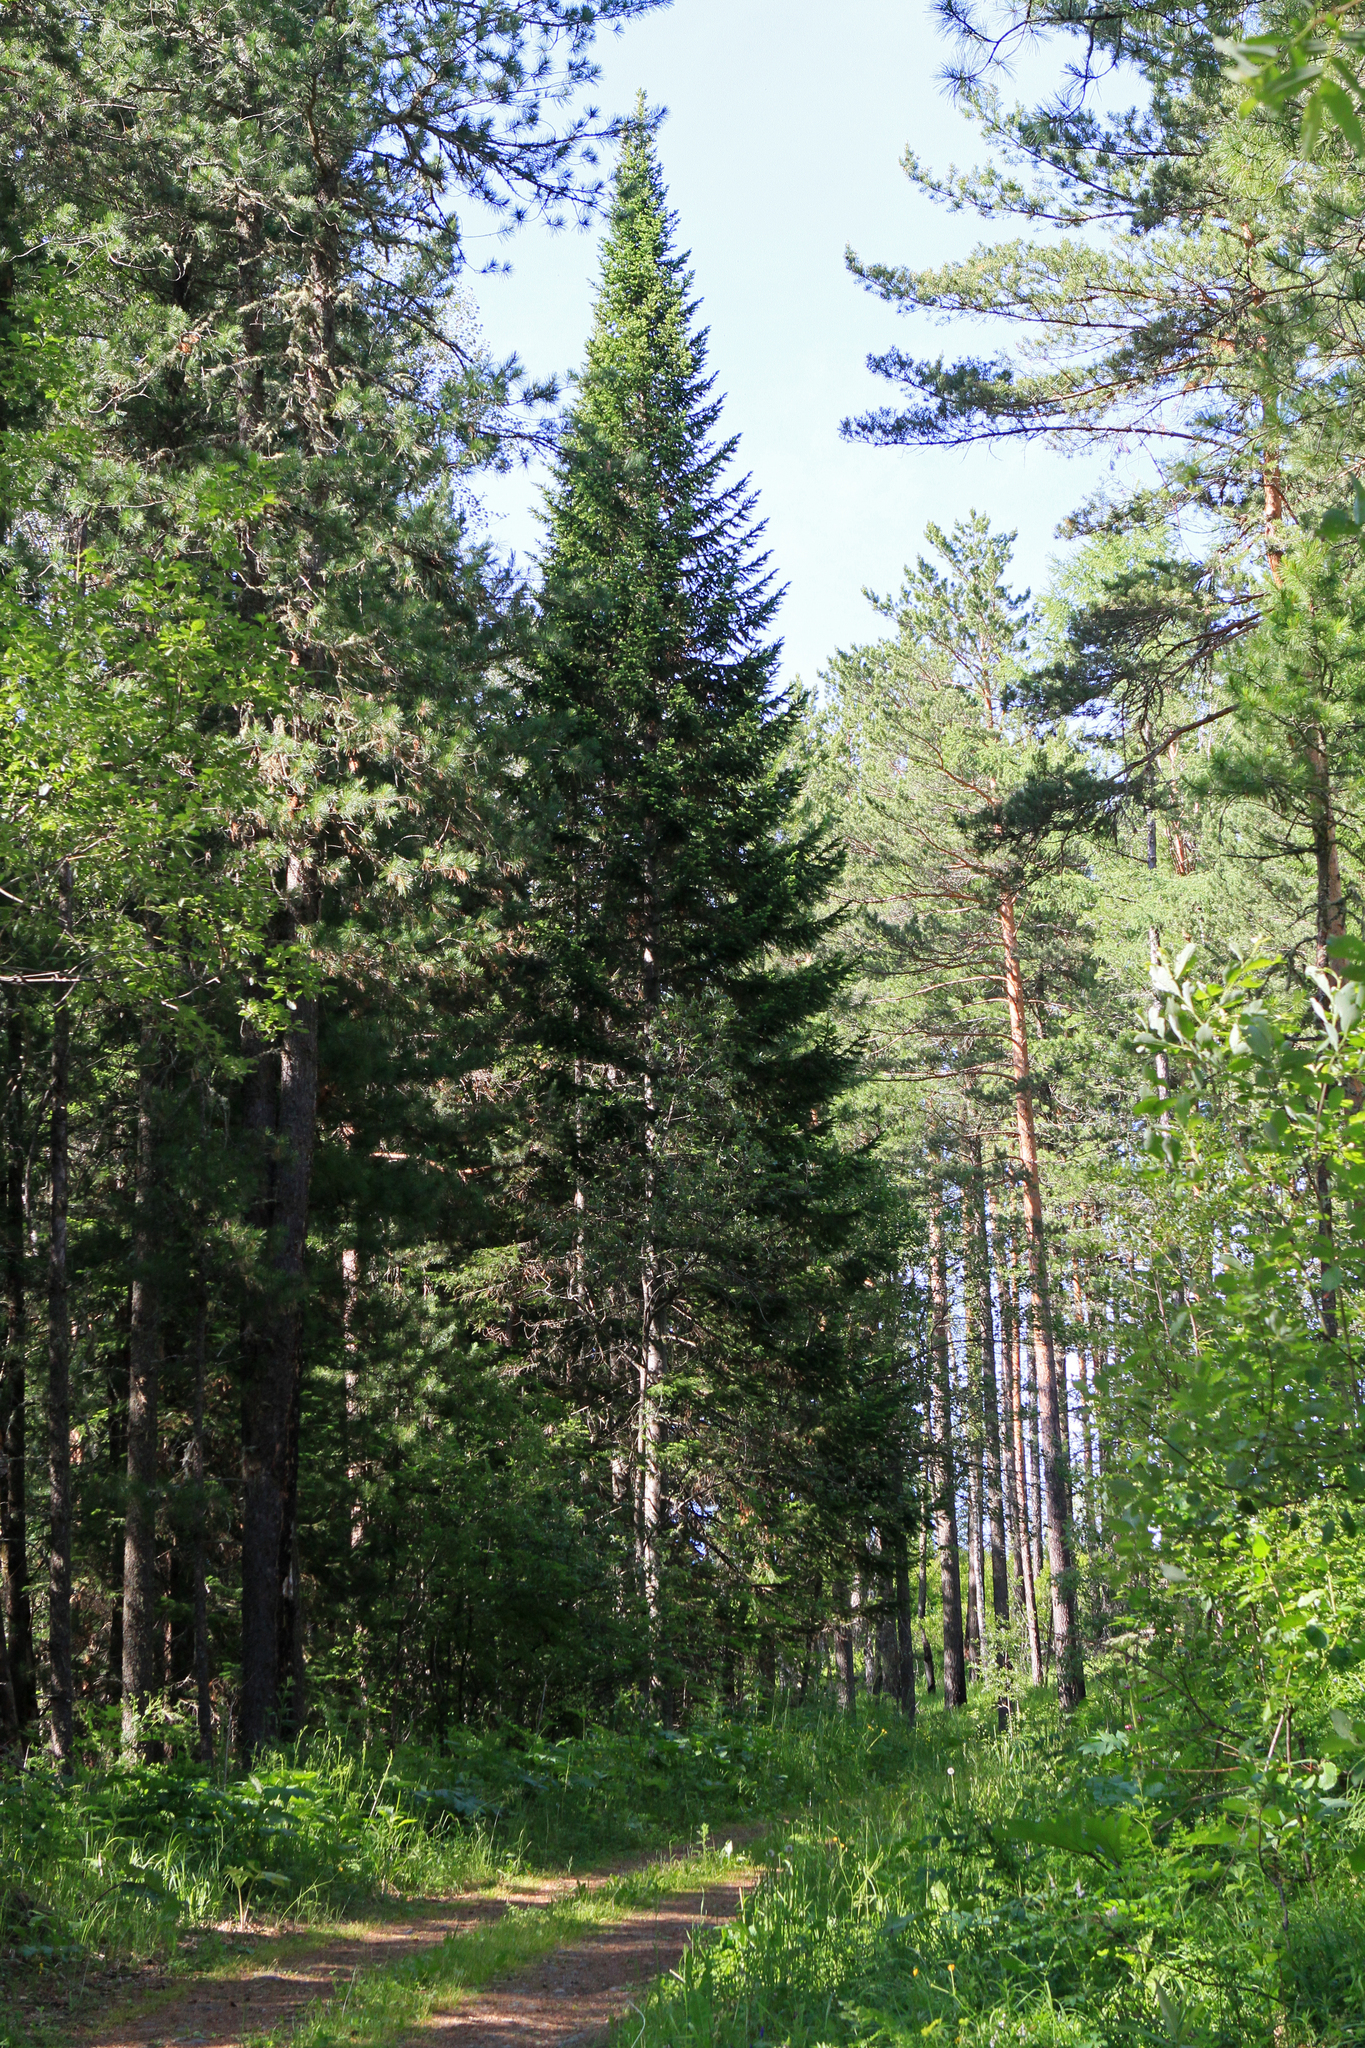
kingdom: Plantae
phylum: Tracheophyta
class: Pinopsida
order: Pinales
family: Pinaceae
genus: Abies
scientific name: Abies sibirica
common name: Siberian fir
